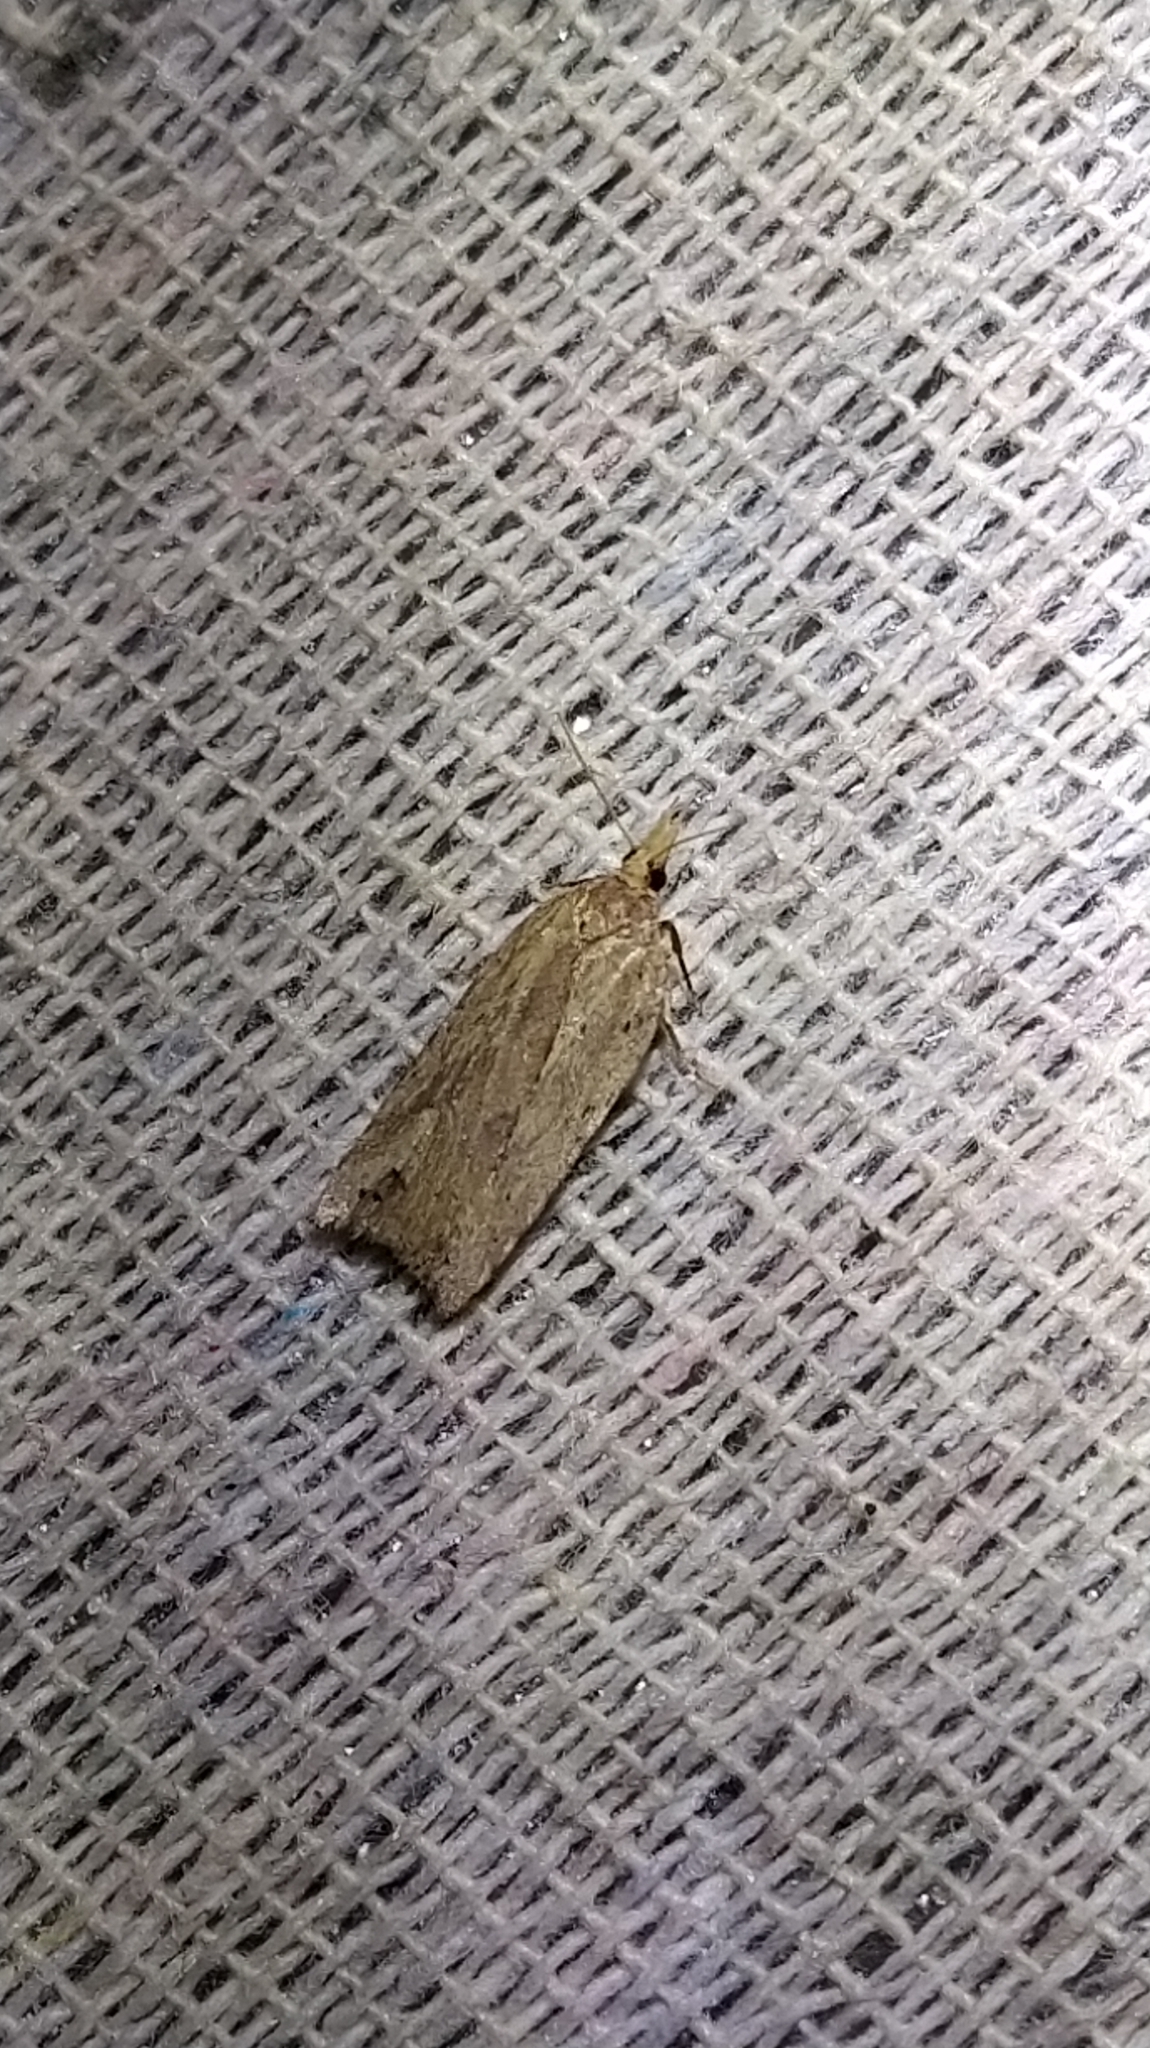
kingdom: Animalia
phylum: Arthropoda
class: Insecta
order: Lepidoptera
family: Tortricidae
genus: Planotortrix
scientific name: Planotortrix notophaea
